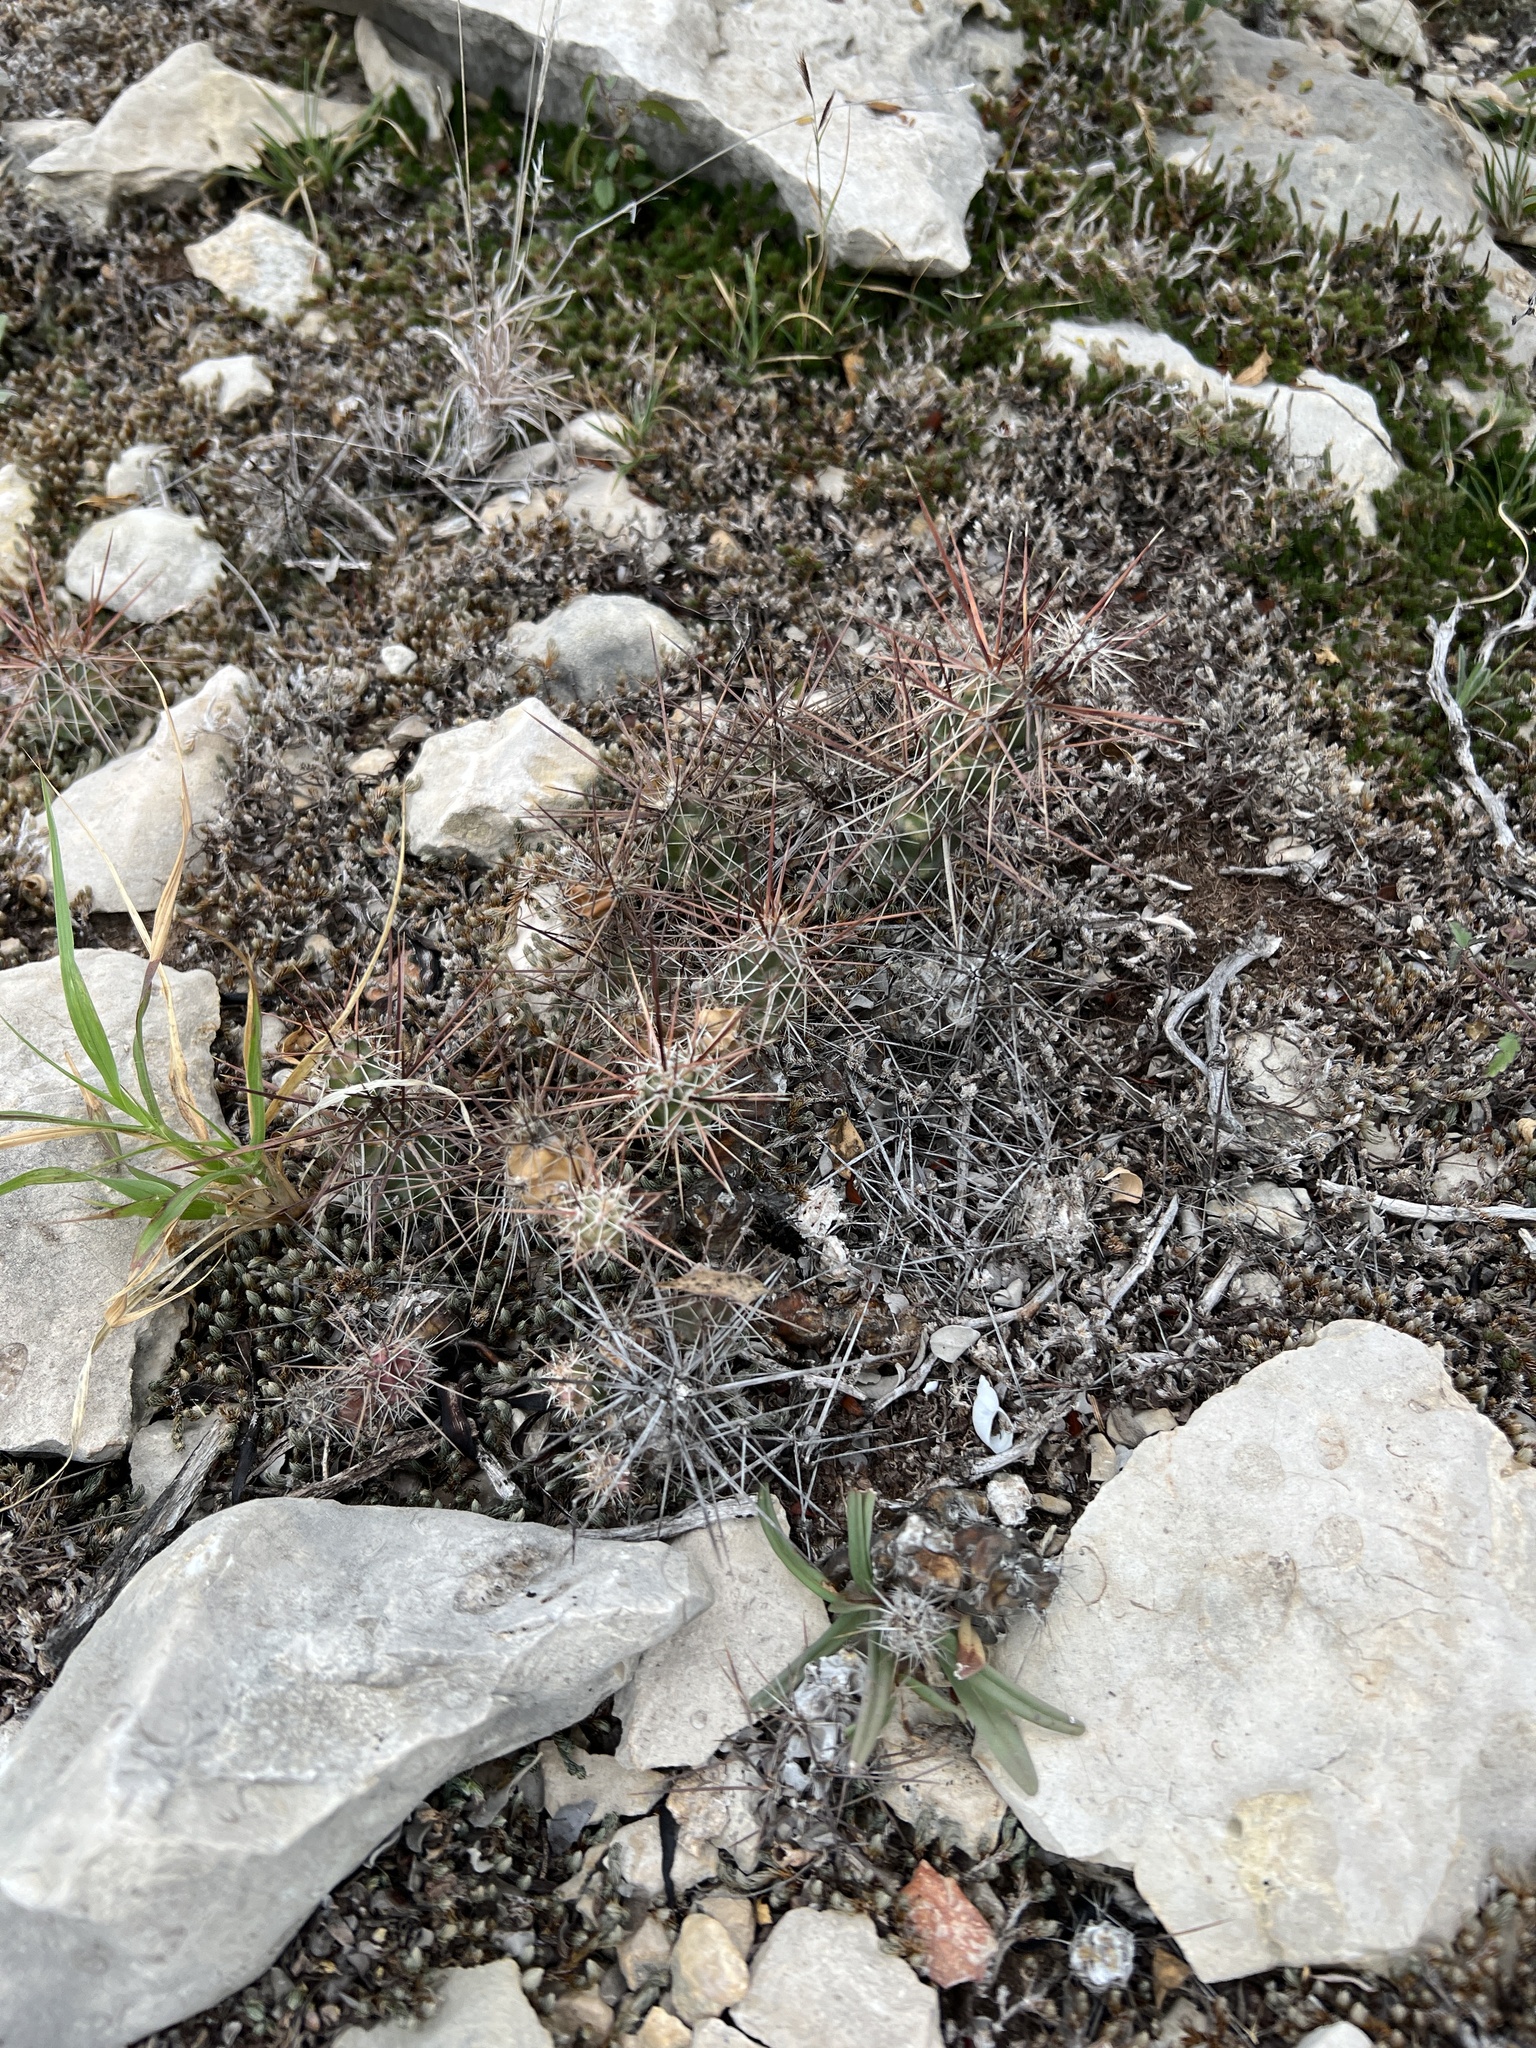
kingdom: Plantae
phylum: Tracheophyta
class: Magnoliopsida
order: Caryophyllales
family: Cactaceae
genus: Grusonia
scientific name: Grusonia schottii
